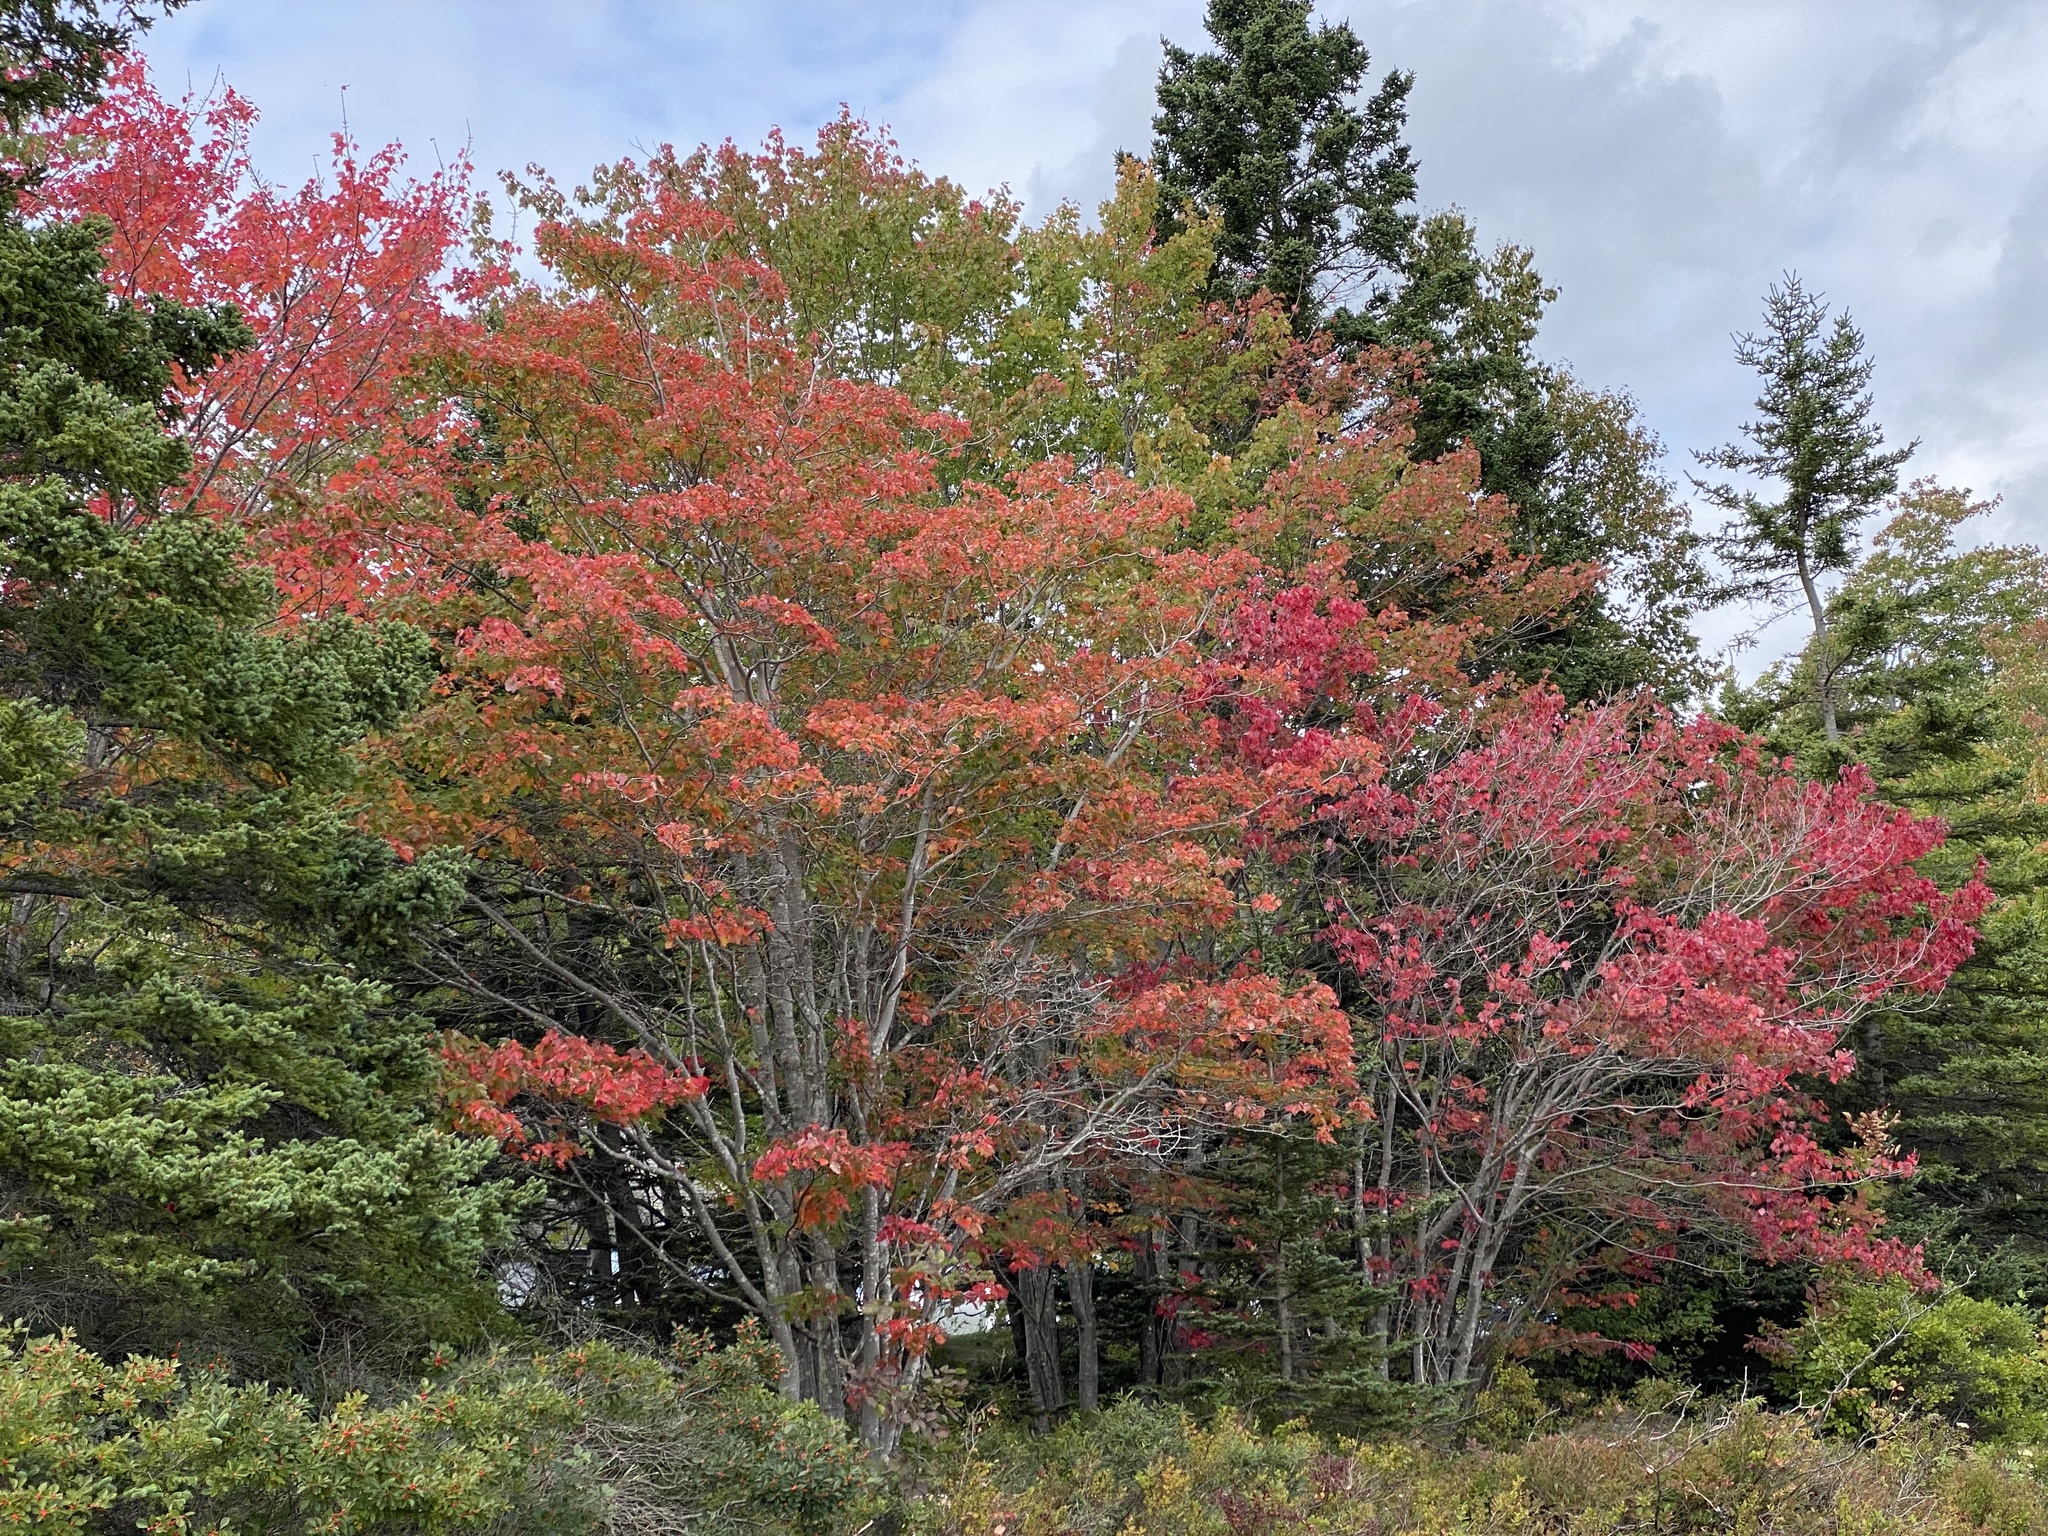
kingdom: Plantae
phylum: Tracheophyta
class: Magnoliopsida
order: Sapindales
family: Sapindaceae
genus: Acer
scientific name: Acer rubrum
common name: Red maple
